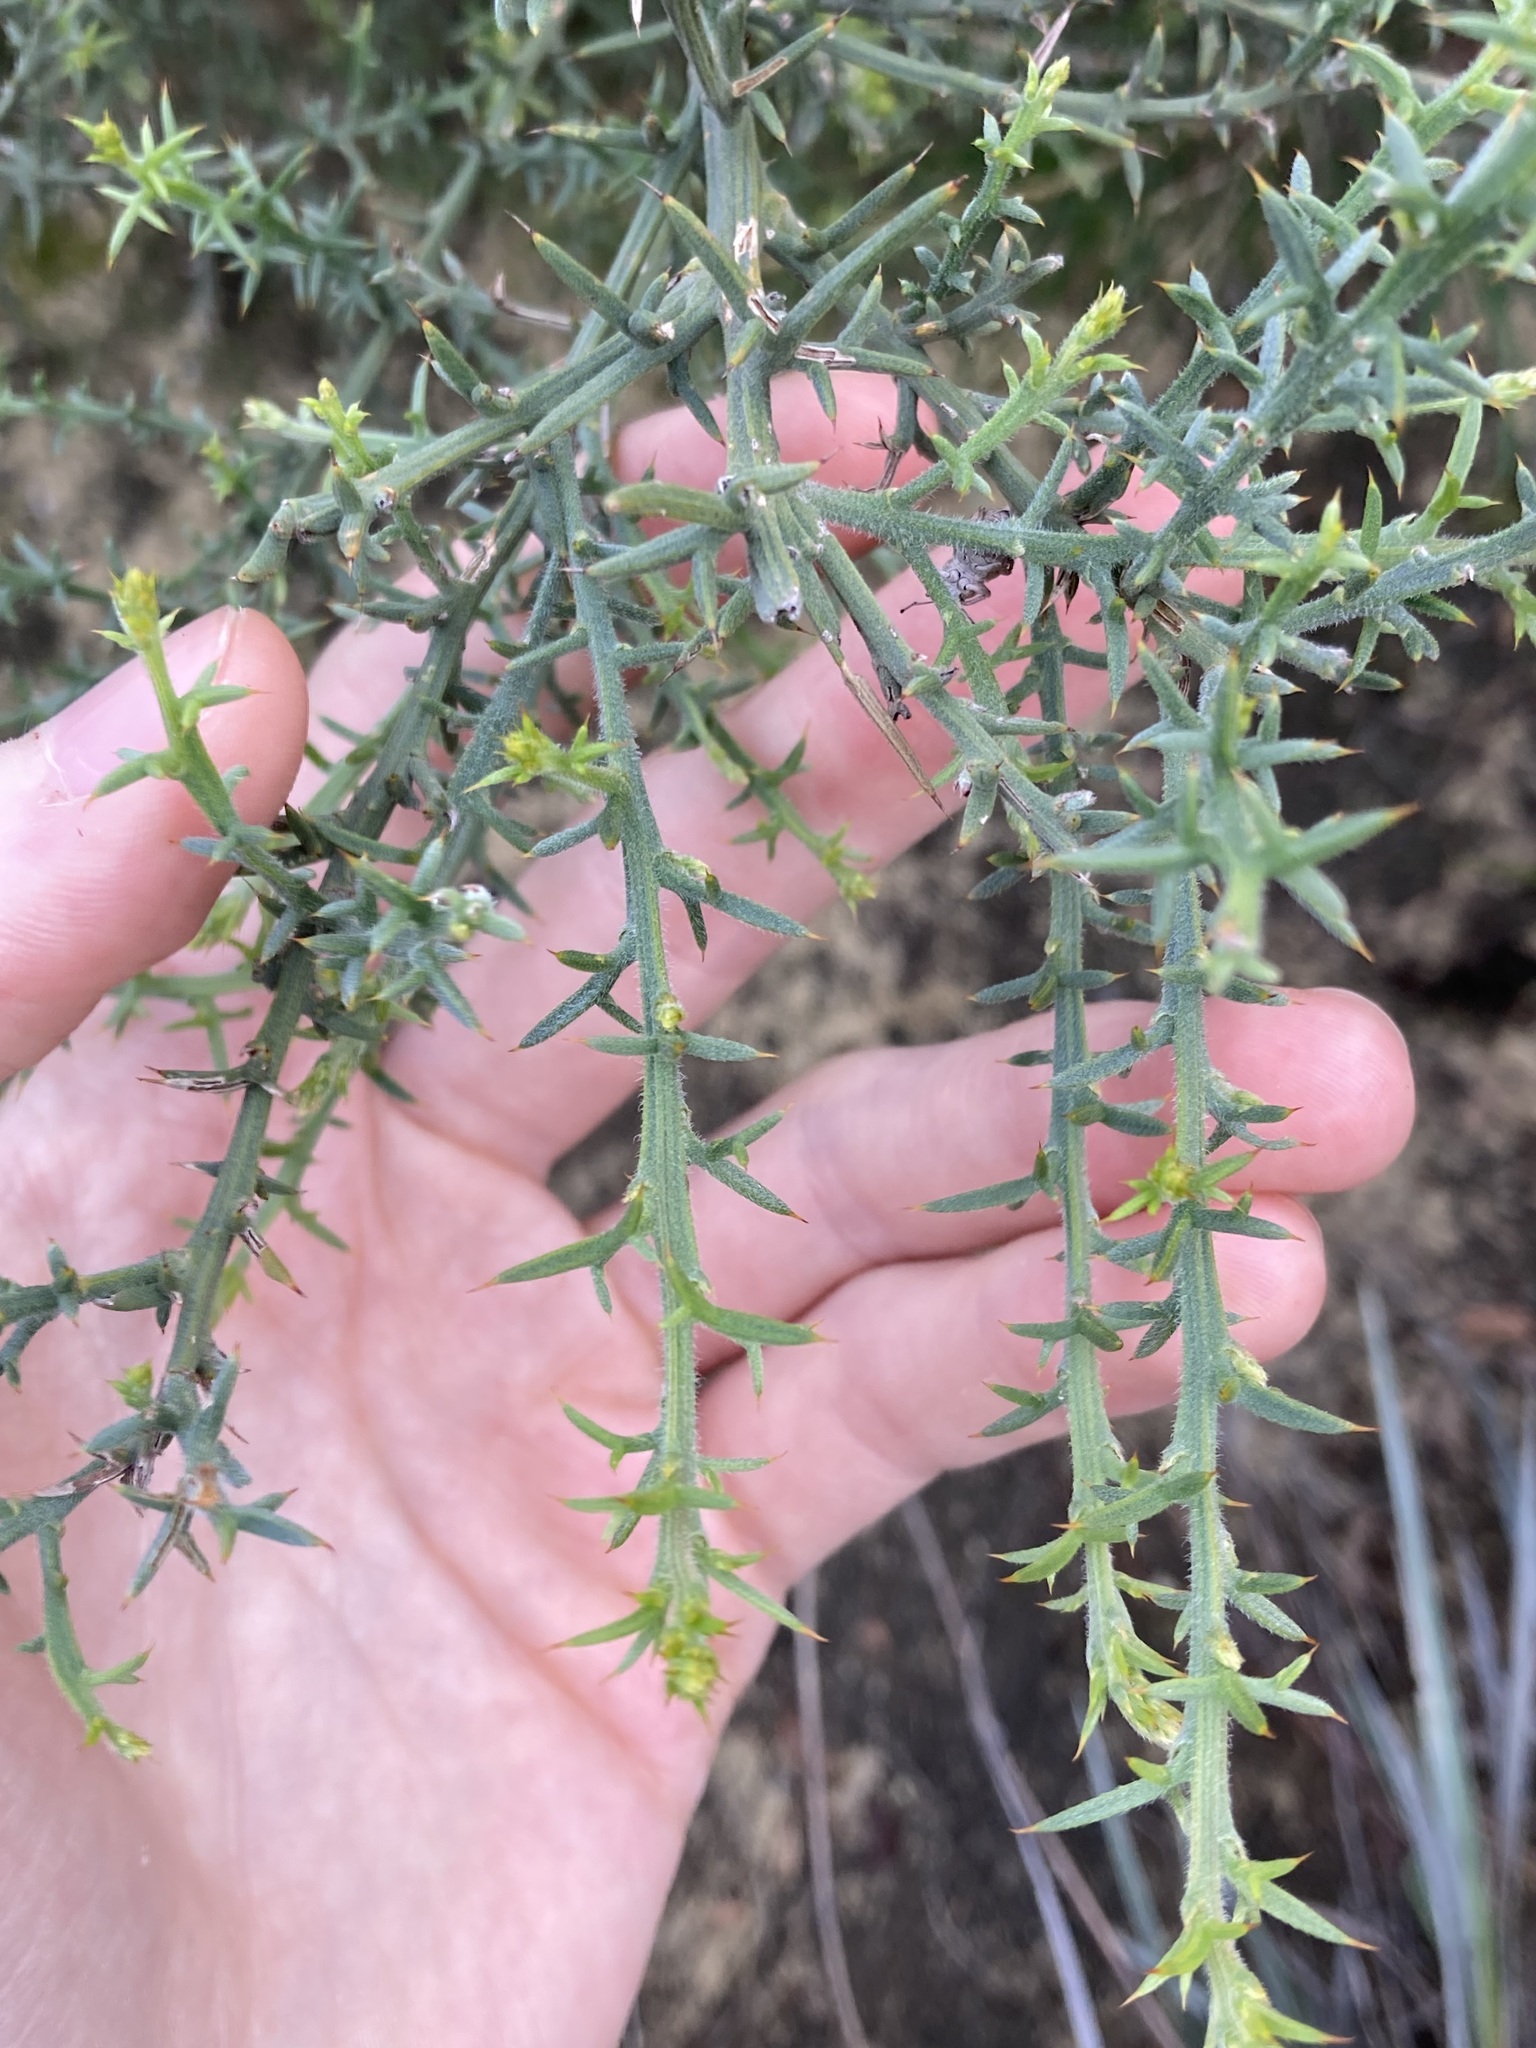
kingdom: Plantae
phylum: Tracheophyta
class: Magnoliopsida
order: Fabales
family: Fabaceae
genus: Jacksonia
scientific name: Jacksonia calcicola
